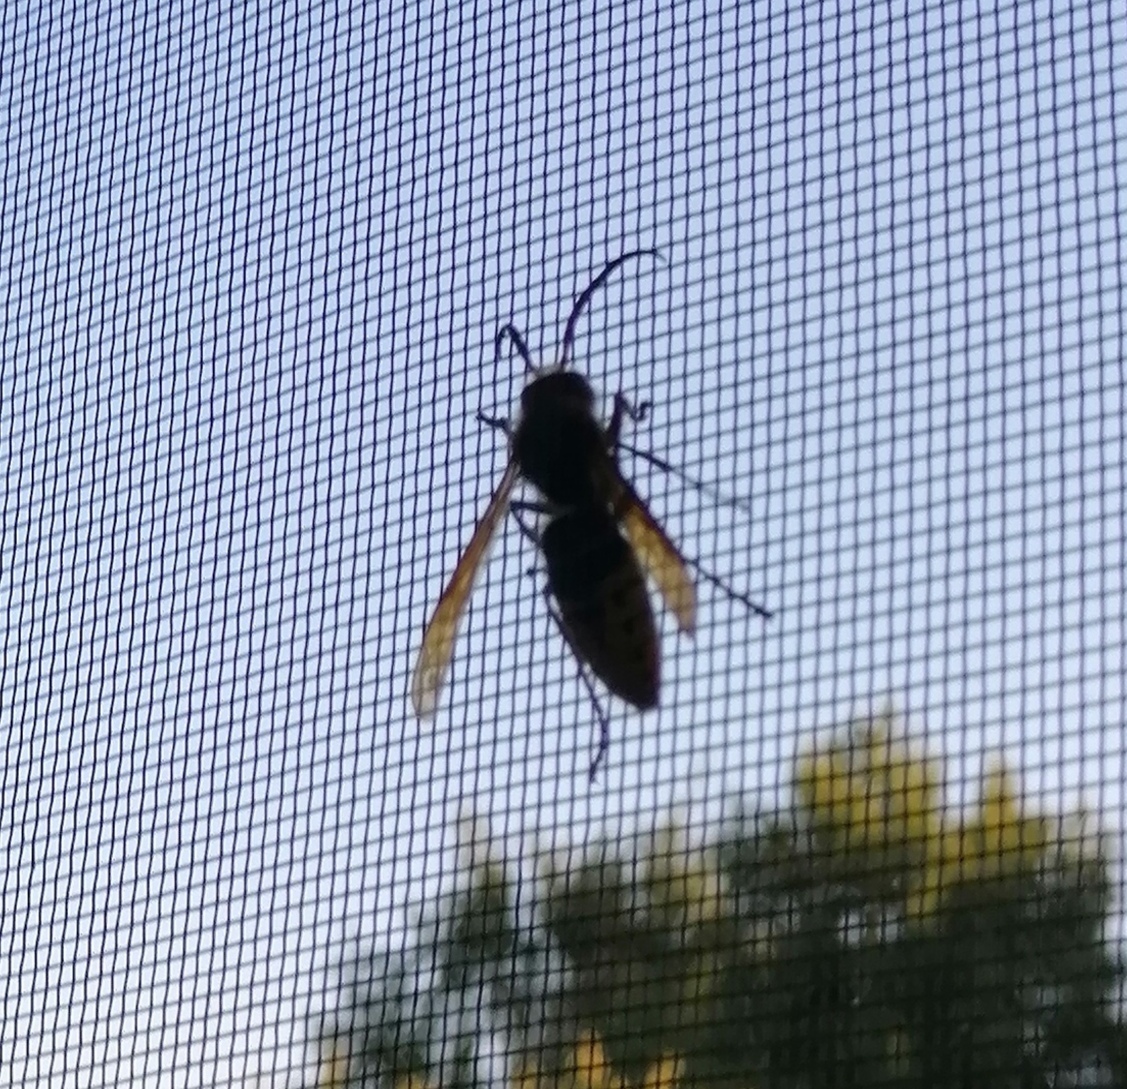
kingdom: Animalia
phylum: Arthropoda
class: Insecta
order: Hymenoptera
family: Vespidae
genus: Vespa
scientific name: Vespa crabro
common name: Hornet
